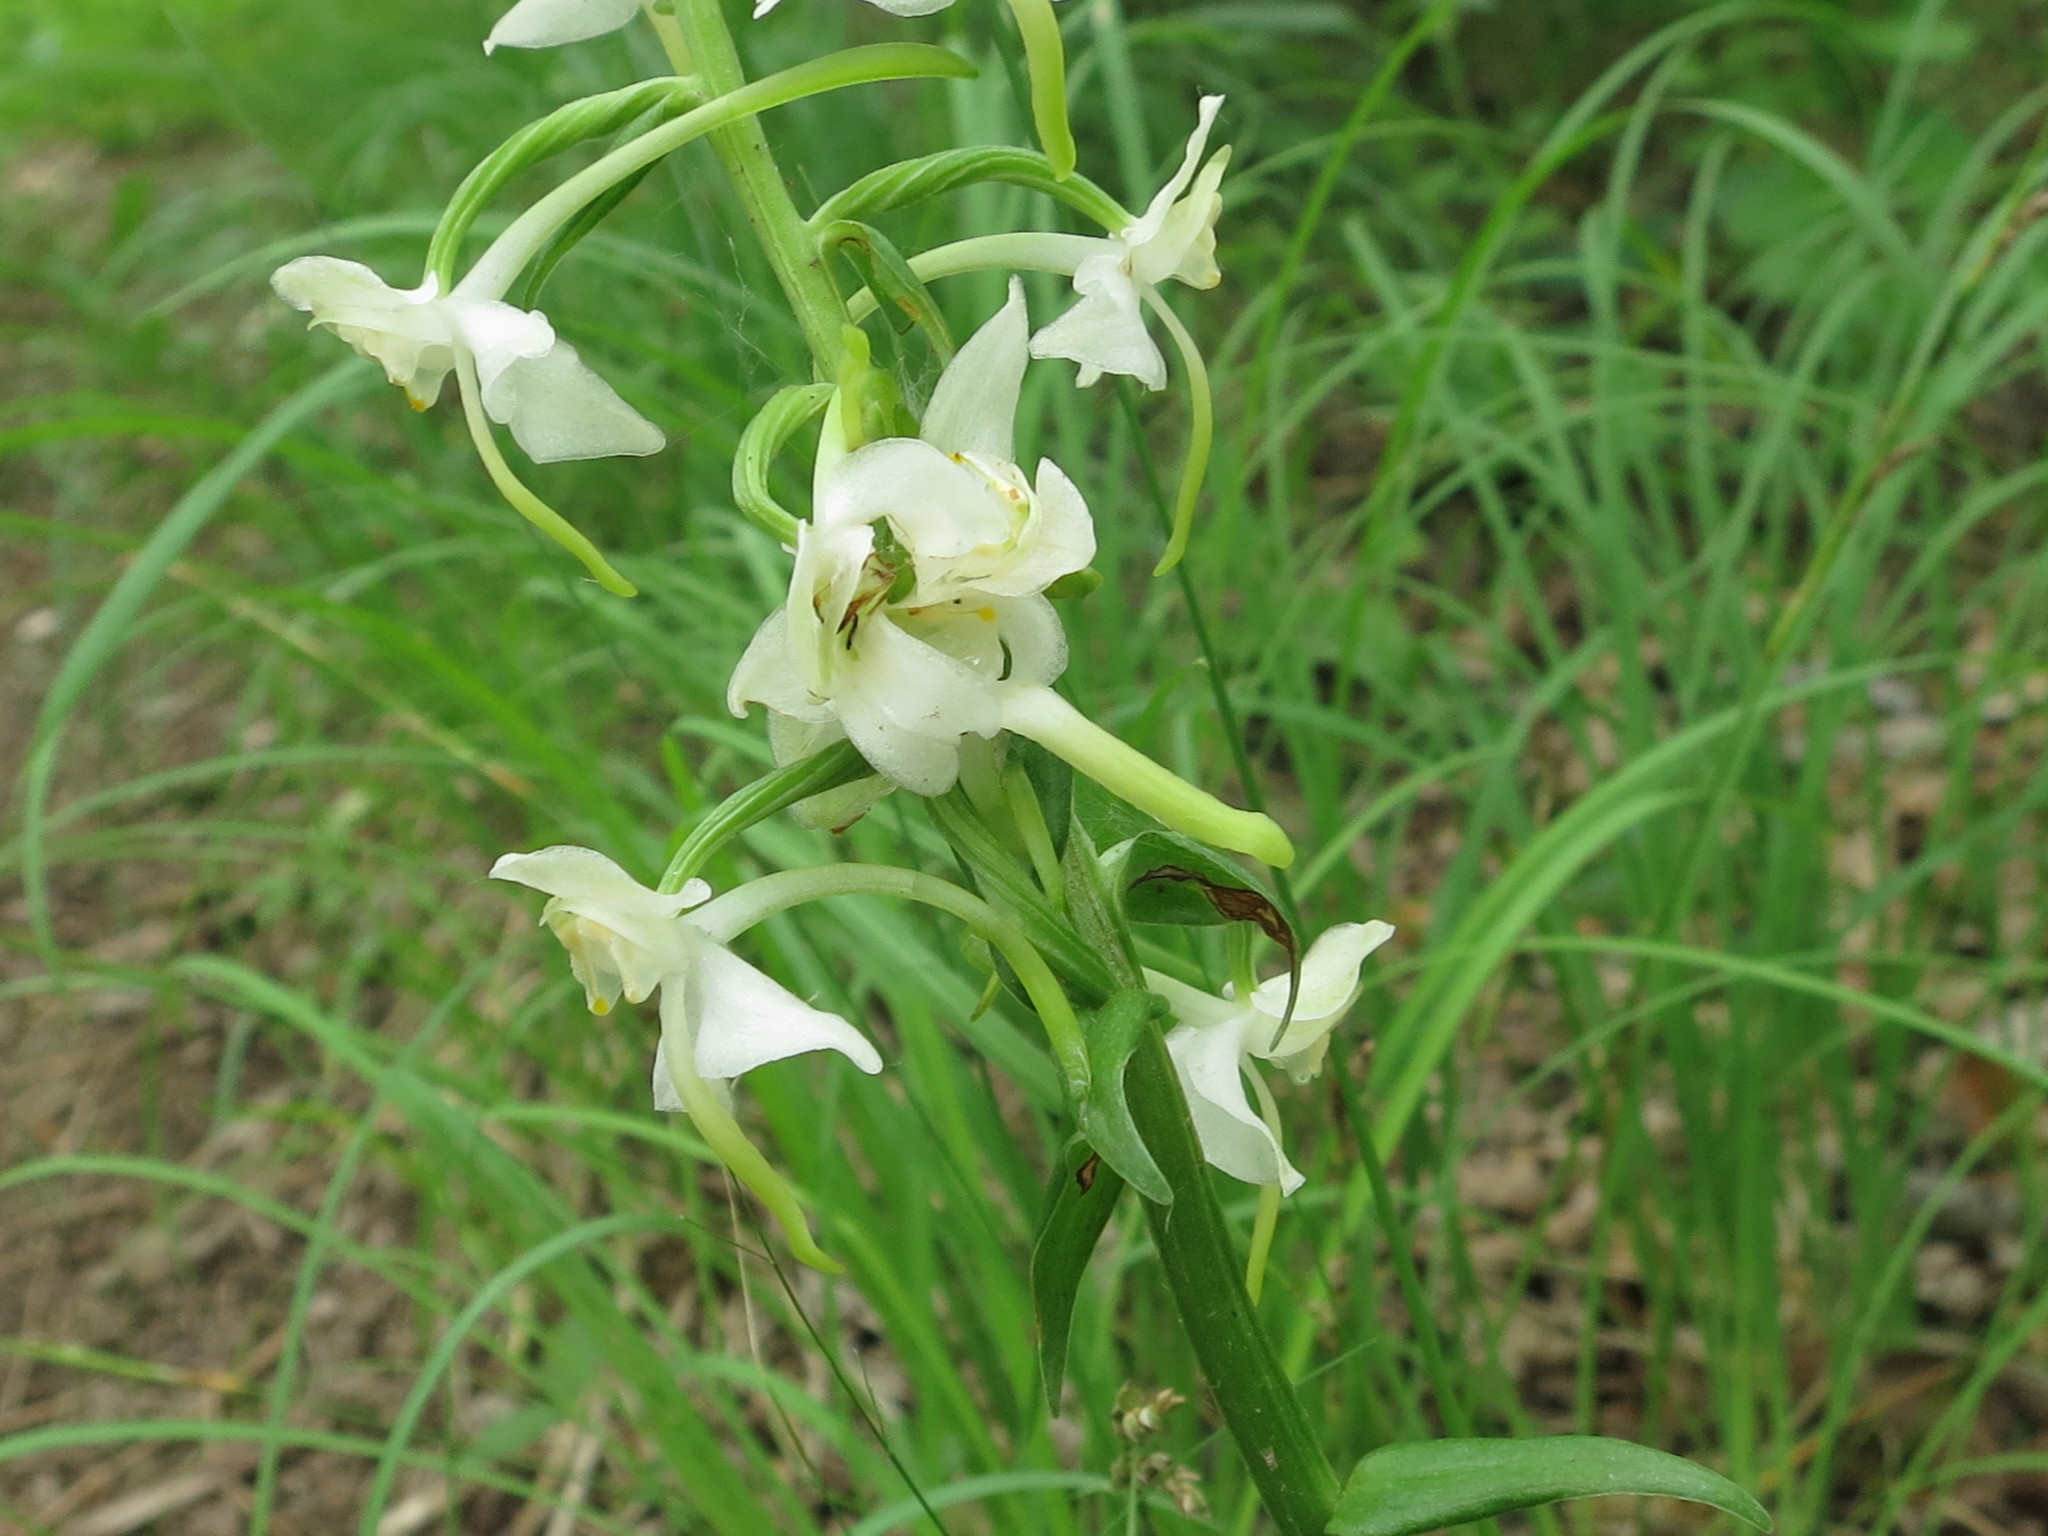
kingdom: Plantae
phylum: Tracheophyta
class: Liliopsida
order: Asparagales
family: Orchidaceae
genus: Platanthera
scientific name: Platanthera densa
